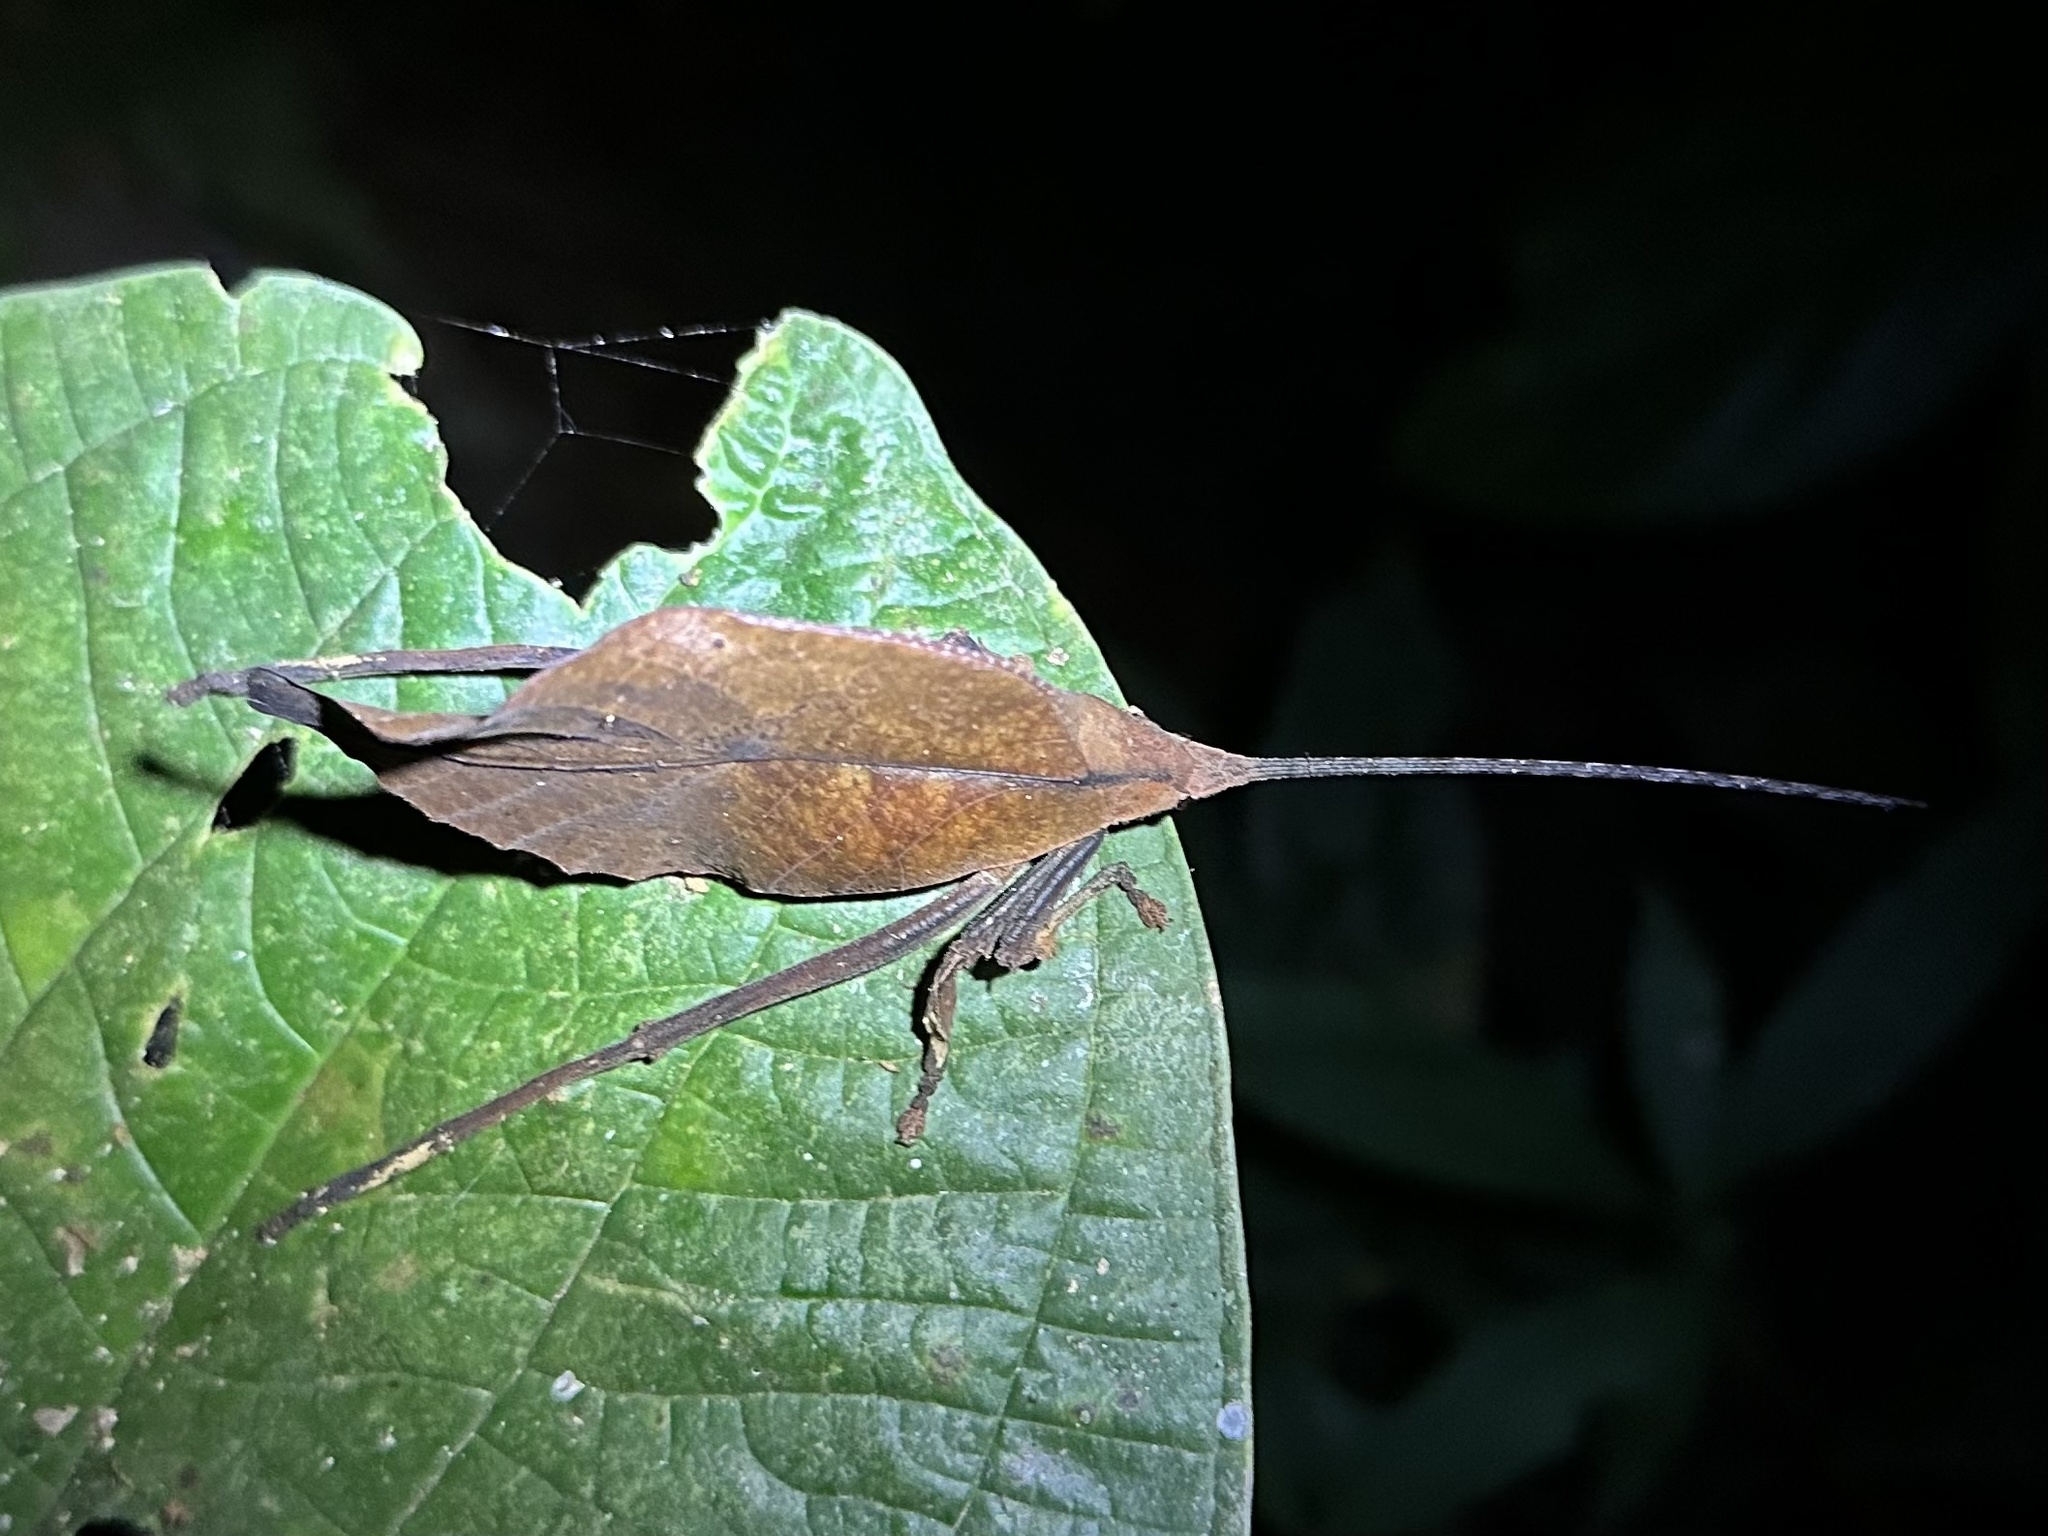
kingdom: Animalia
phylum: Arthropoda
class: Insecta
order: Orthoptera
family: Tettigoniidae
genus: Mimetica
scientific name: Mimetica incisa
